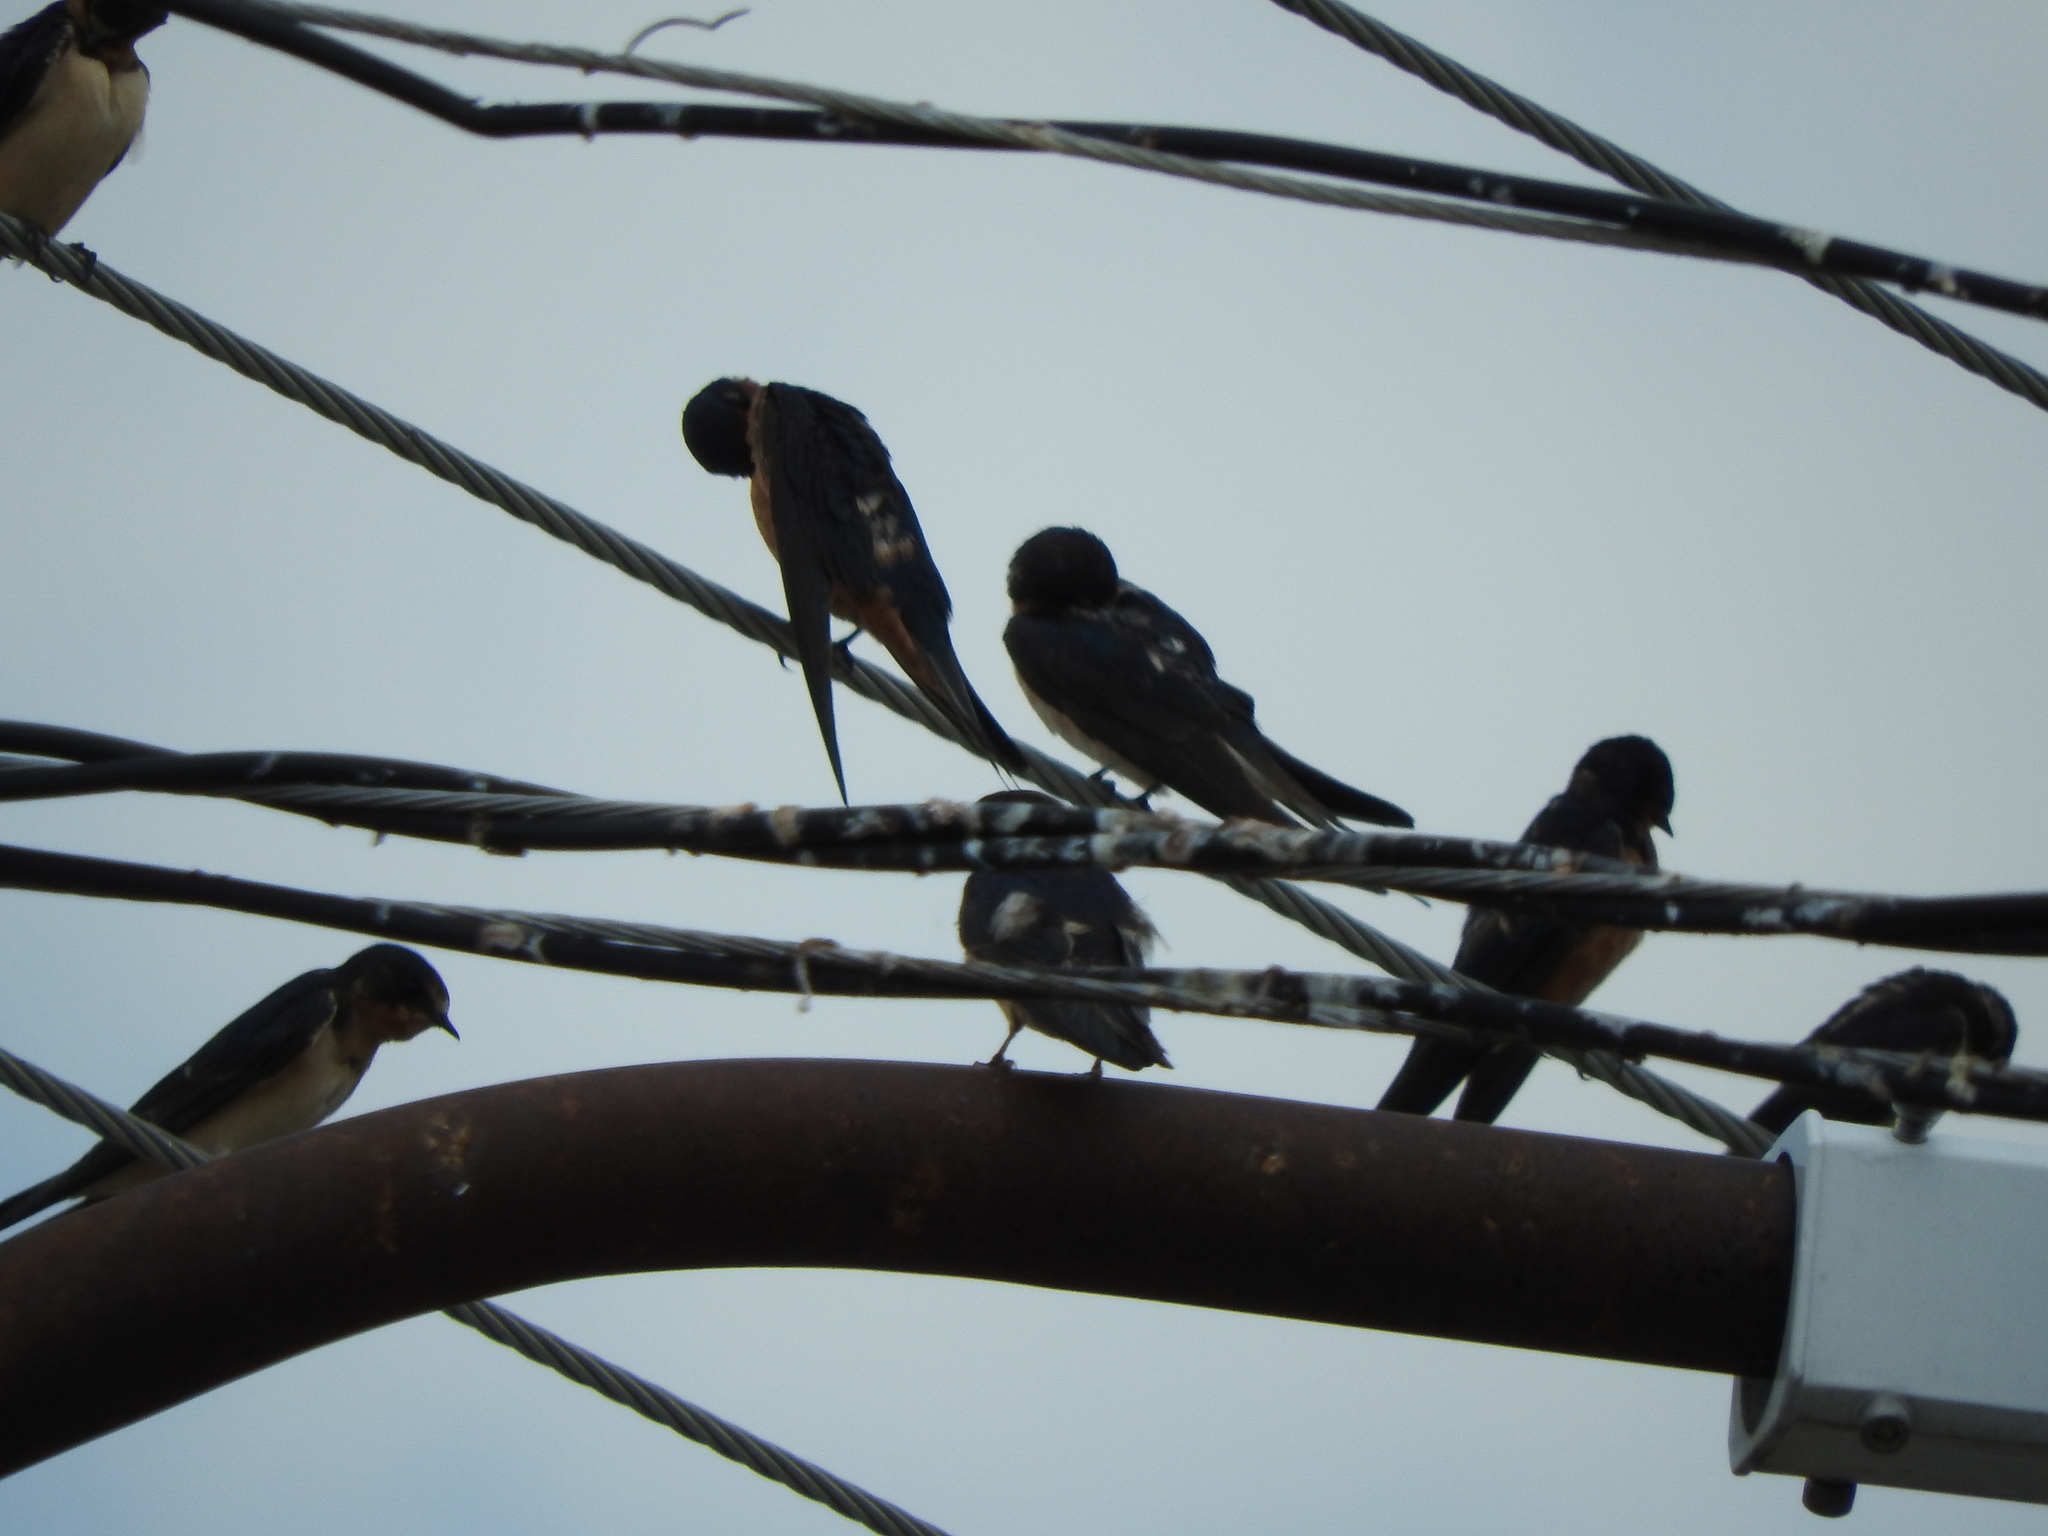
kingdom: Animalia
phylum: Chordata
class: Aves
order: Passeriformes
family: Hirundinidae
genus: Hirundo
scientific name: Hirundo rustica
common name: Barn swallow
